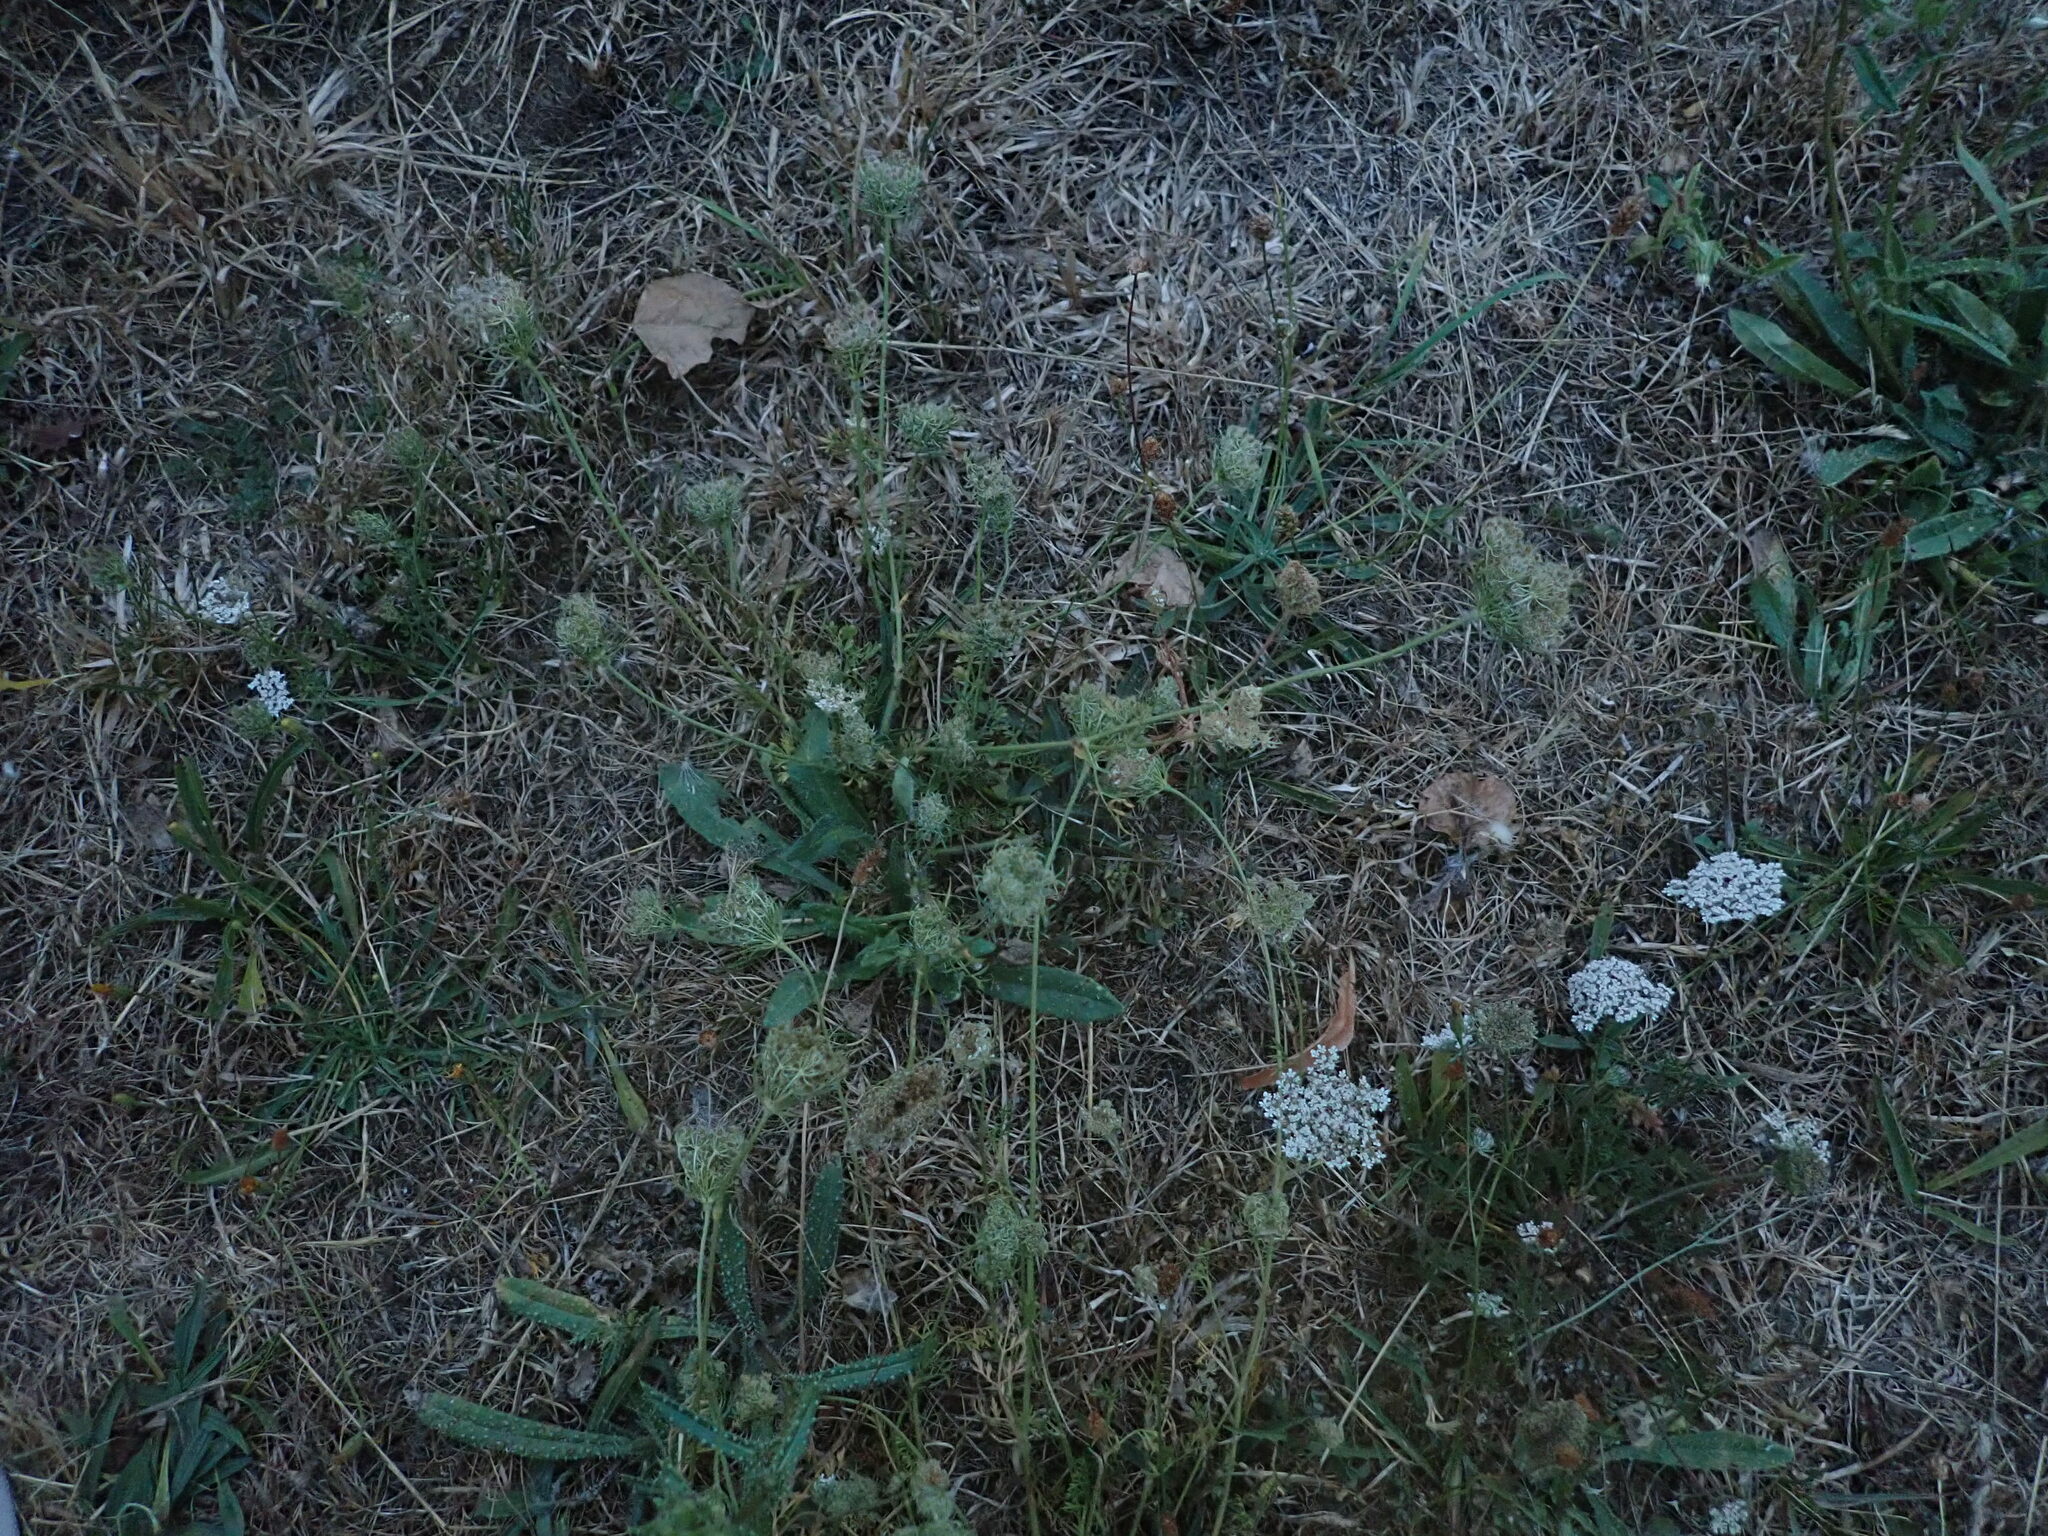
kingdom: Plantae
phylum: Tracheophyta
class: Magnoliopsida
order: Apiales
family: Apiaceae
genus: Daucus
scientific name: Daucus carota
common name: Wild carrot
